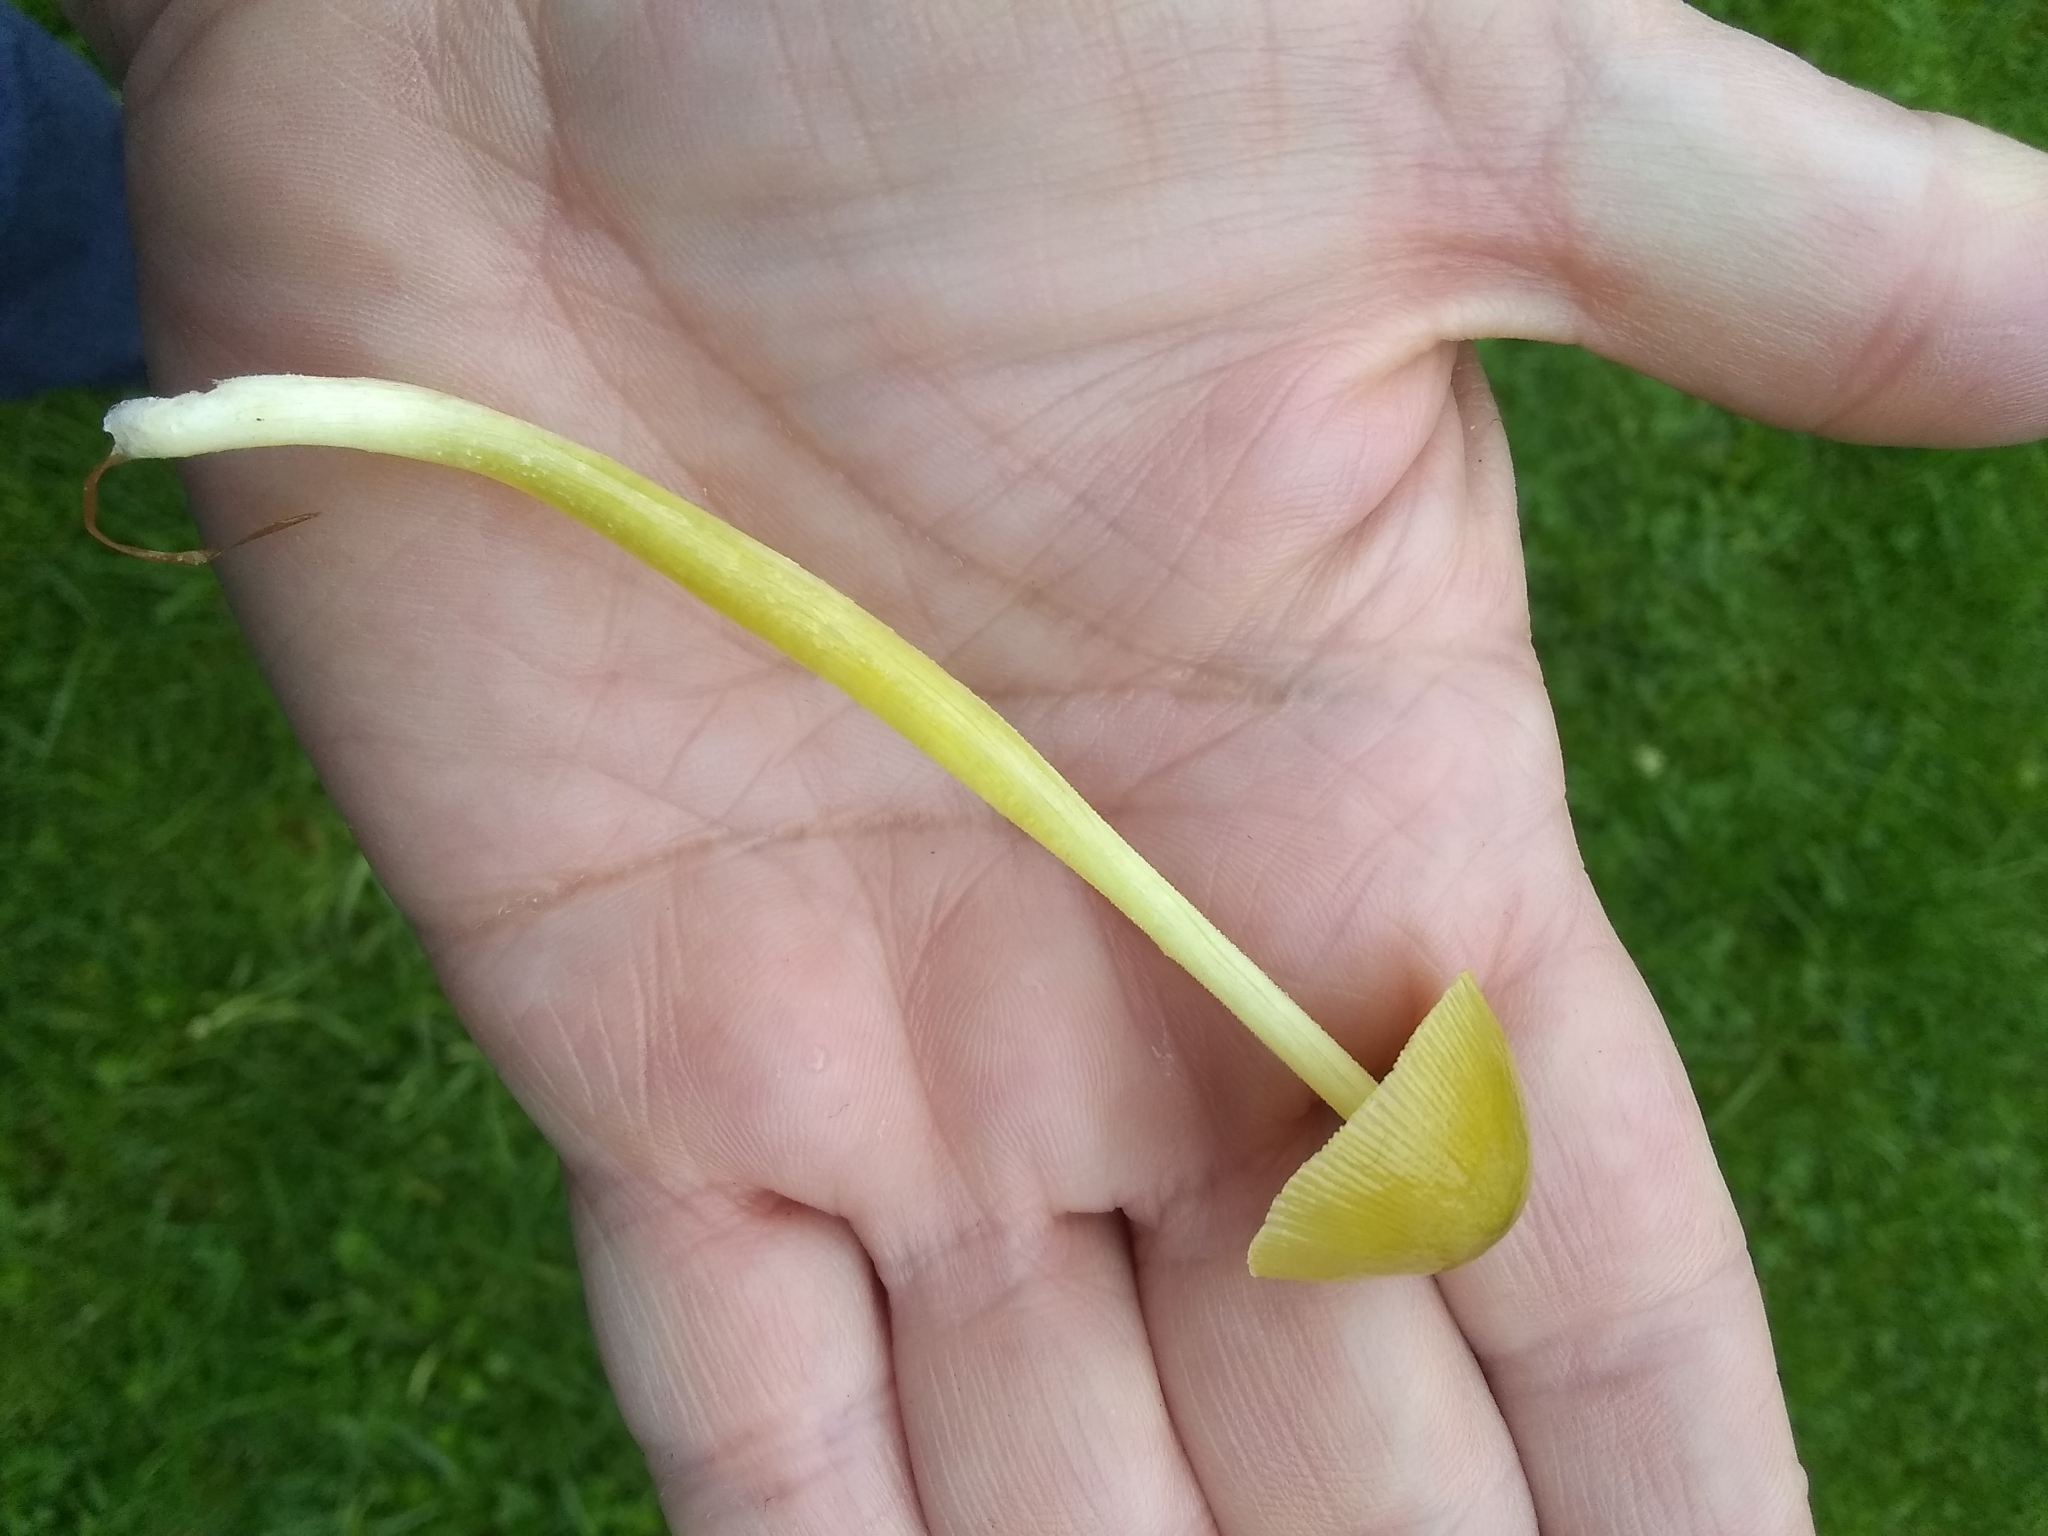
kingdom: Fungi
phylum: Basidiomycota
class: Agaricomycetes
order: Agaricales
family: Bolbitiaceae
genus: Bolbitius
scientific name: Bolbitius titubans
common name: Yellow fieldcap
